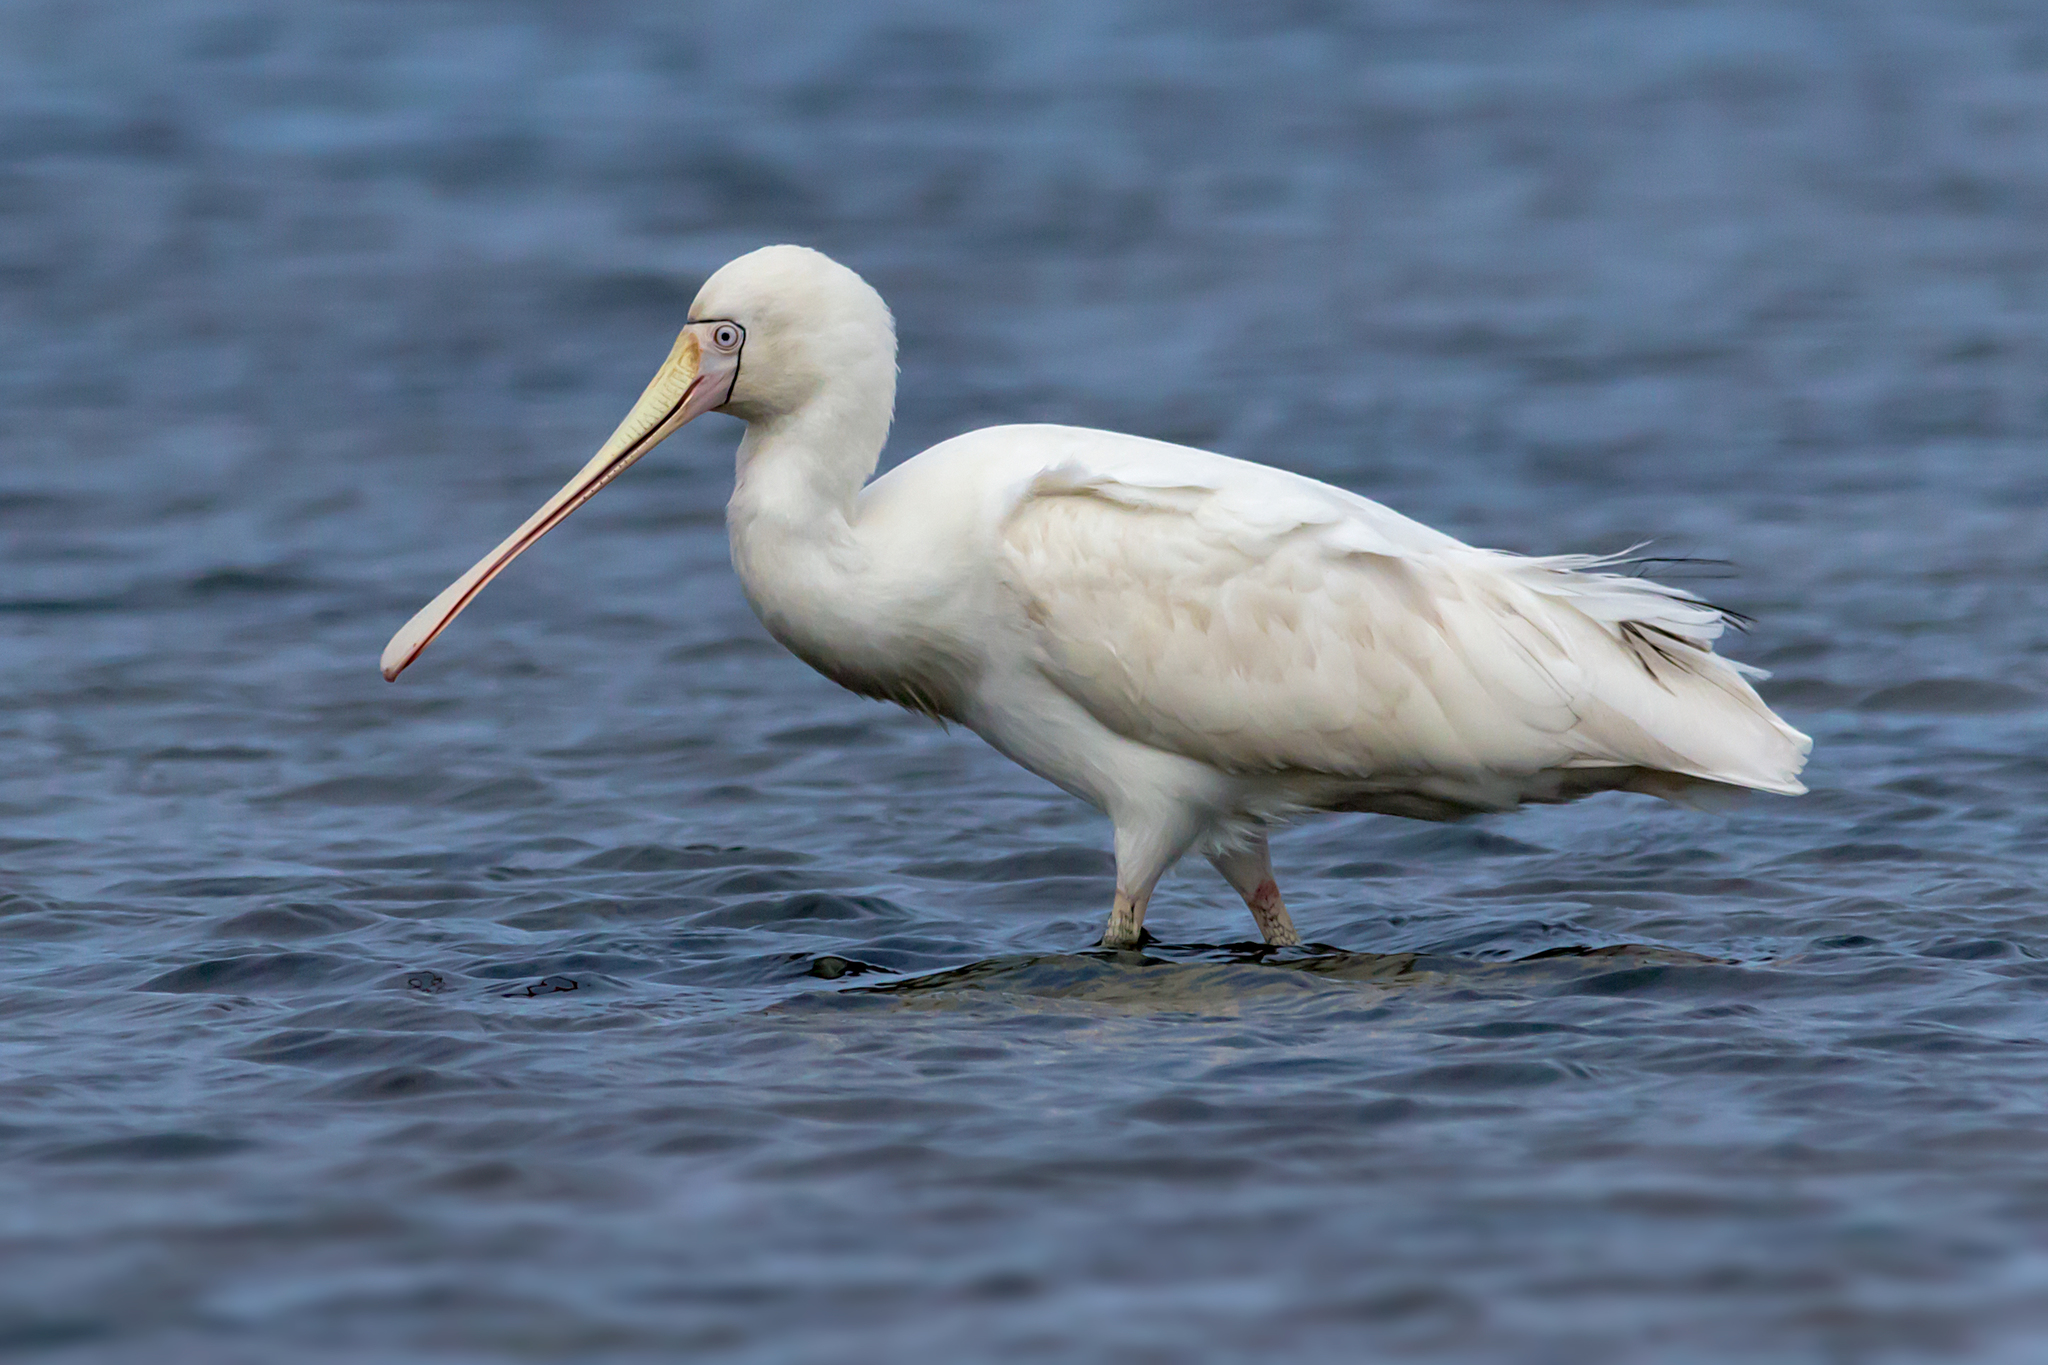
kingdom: Animalia
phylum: Chordata
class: Aves
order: Pelecaniformes
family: Threskiornithidae
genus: Platalea
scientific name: Platalea flavipes
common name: Yellow-billed spoonbill
